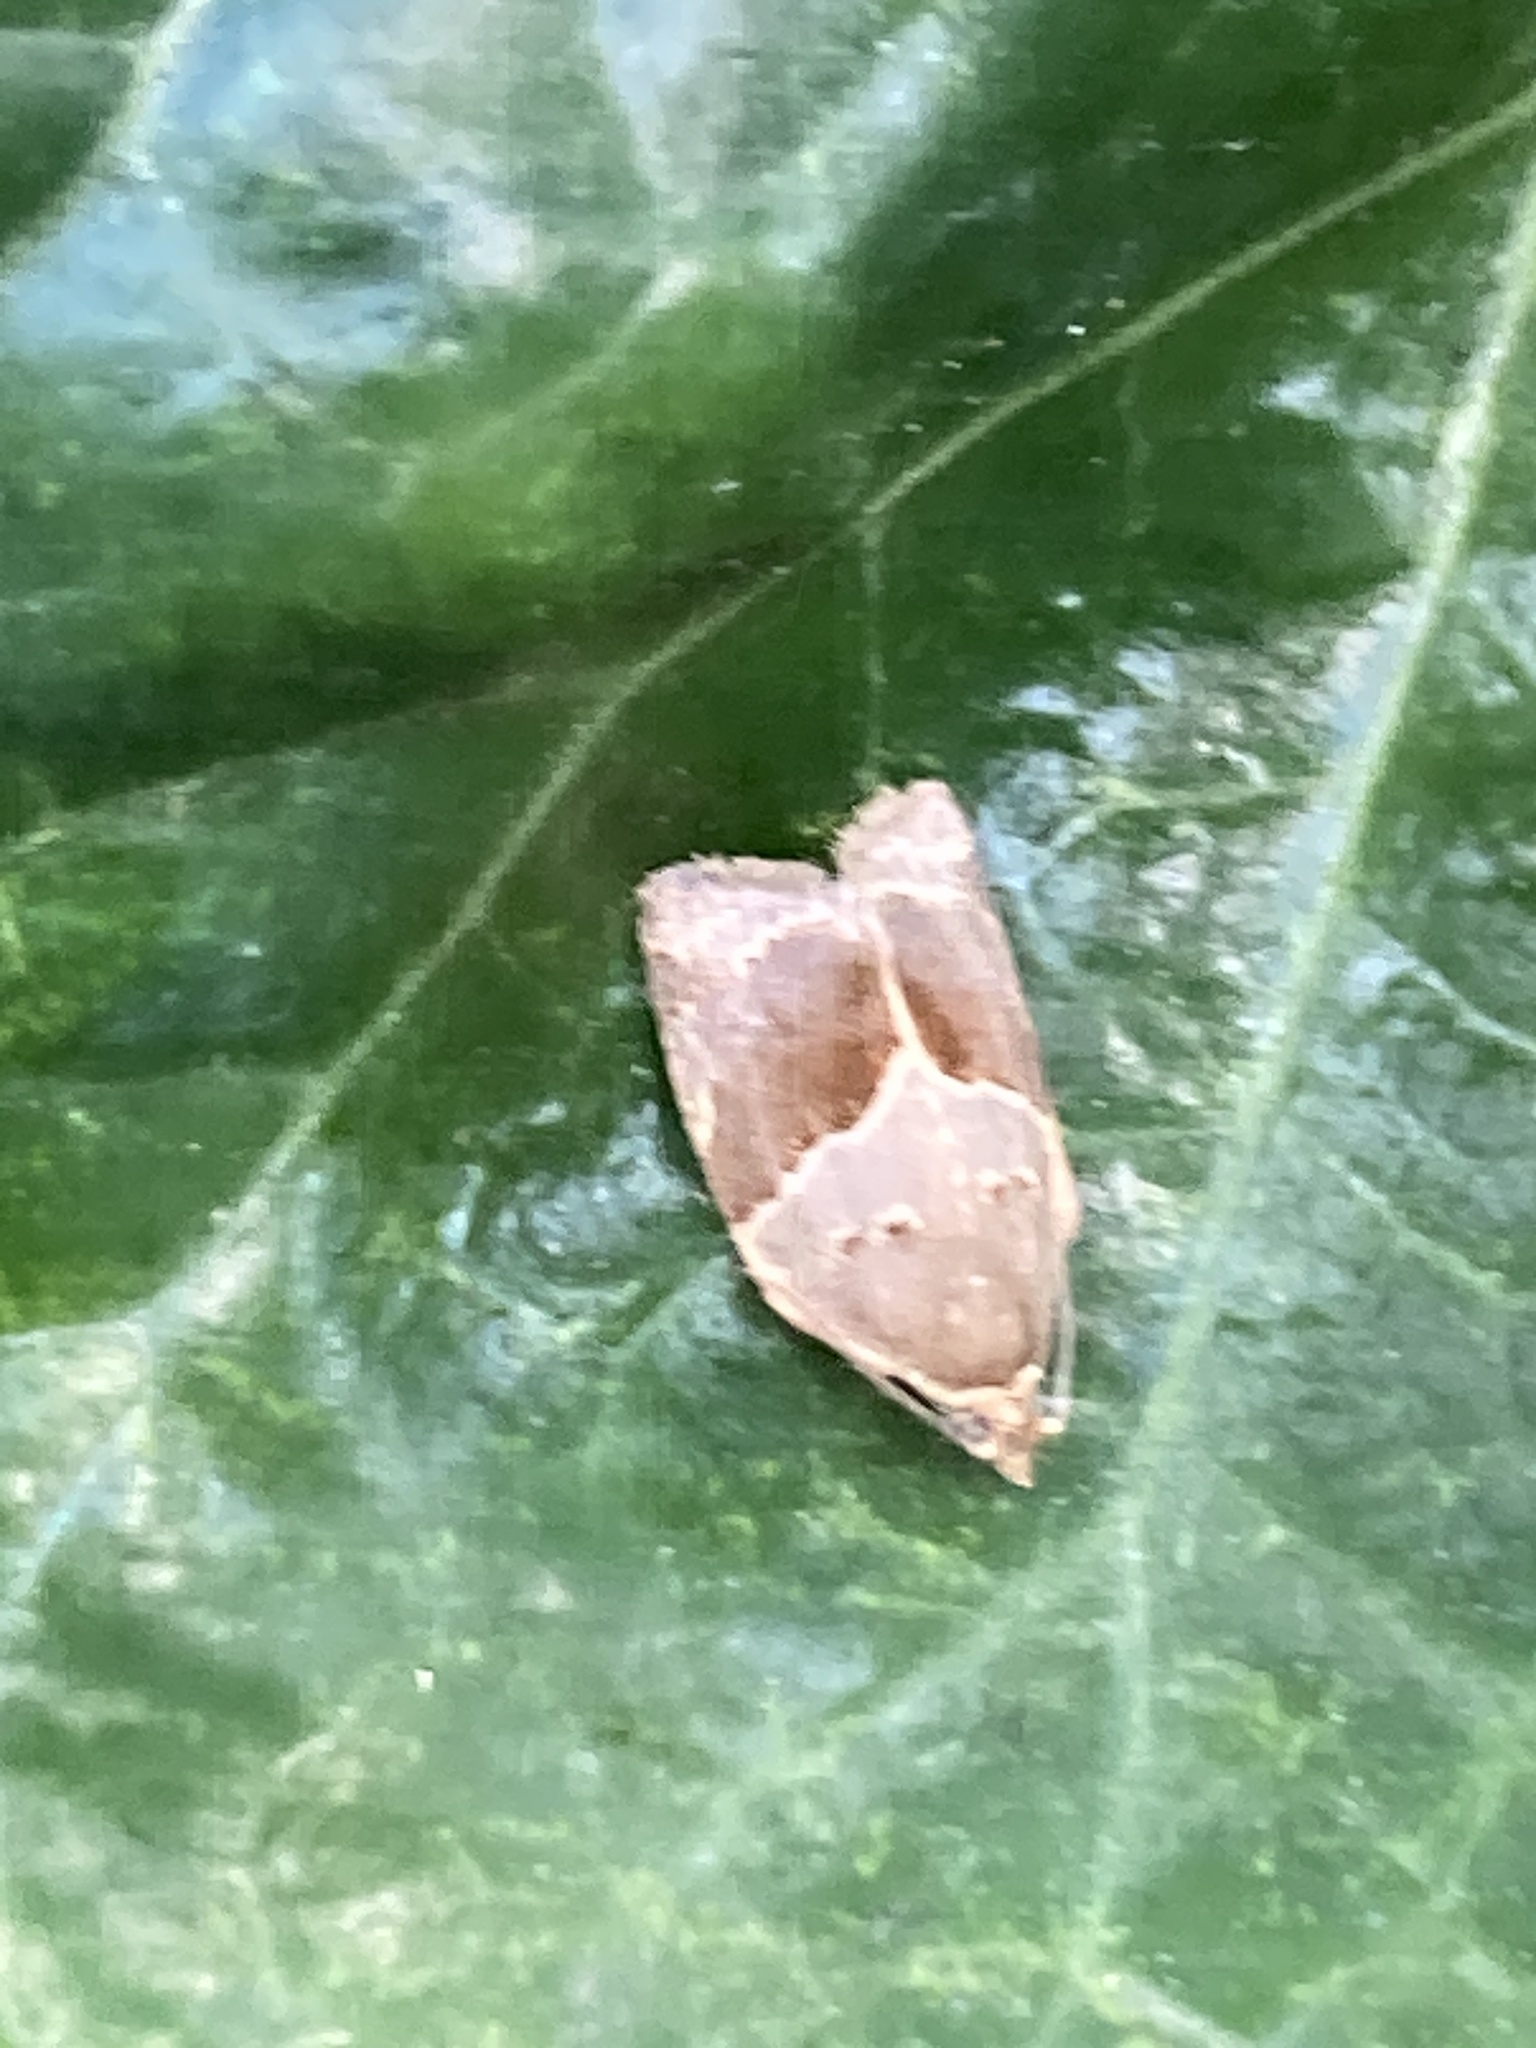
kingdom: Animalia
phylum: Arthropoda
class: Insecta
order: Lepidoptera
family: Tortricidae
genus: Clepsis
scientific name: Clepsis dumicolana
